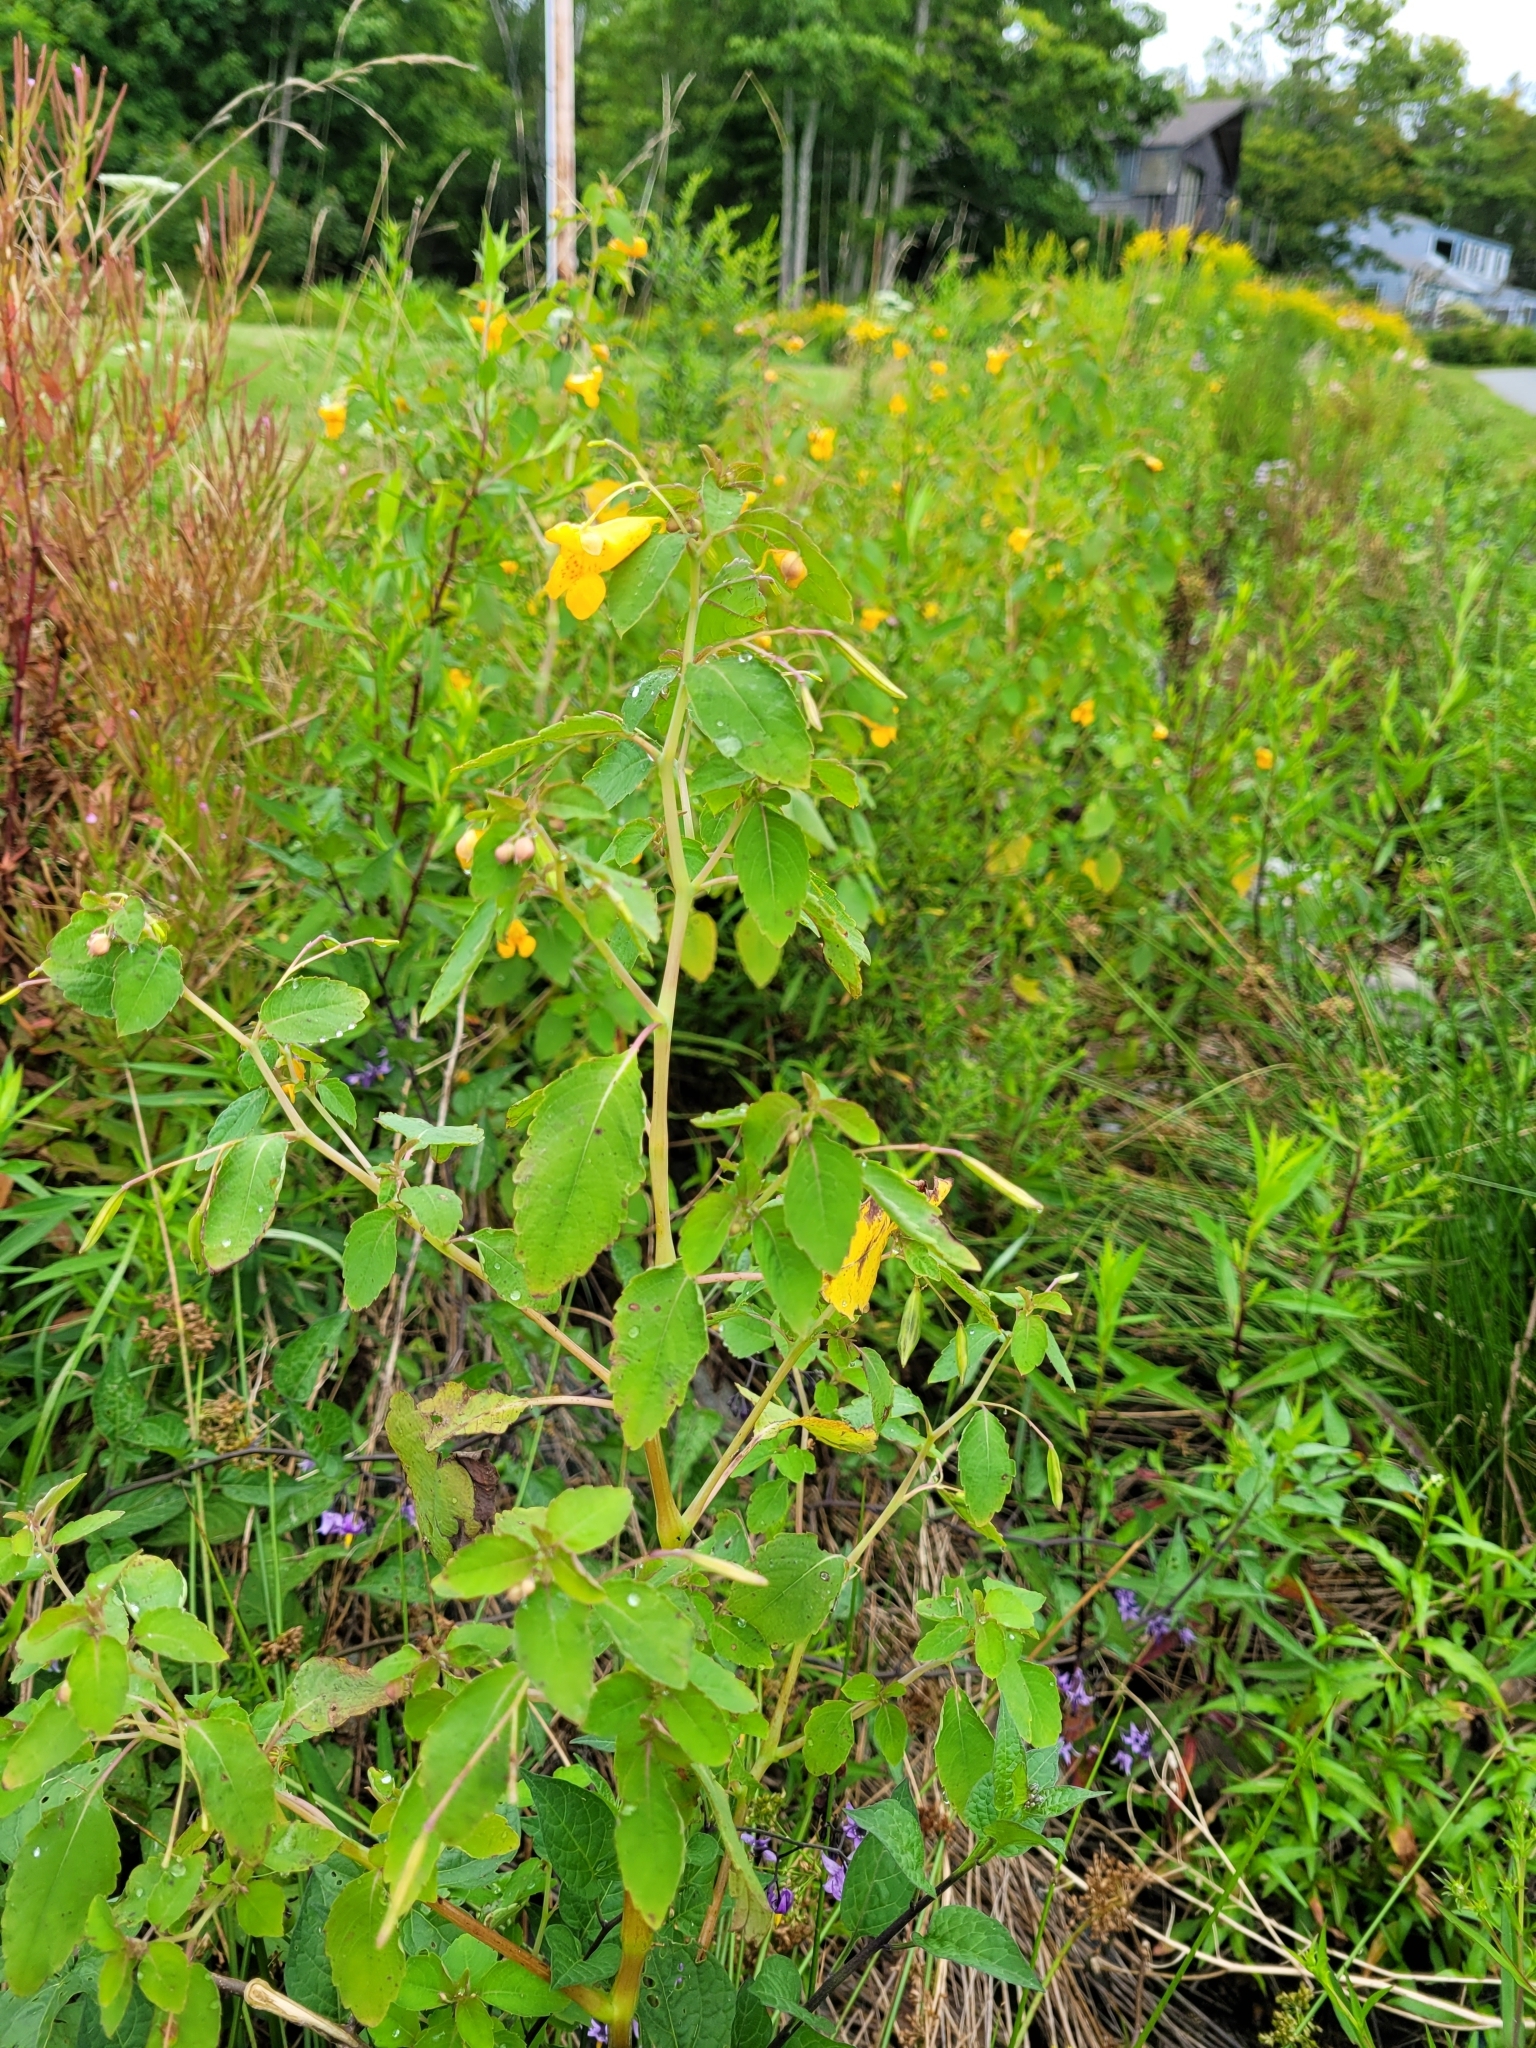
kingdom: Plantae
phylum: Tracheophyta
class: Magnoliopsida
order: Ericales
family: Balsaminaceae
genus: Impatiens
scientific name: Impatiens capensis
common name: Orange balsam
